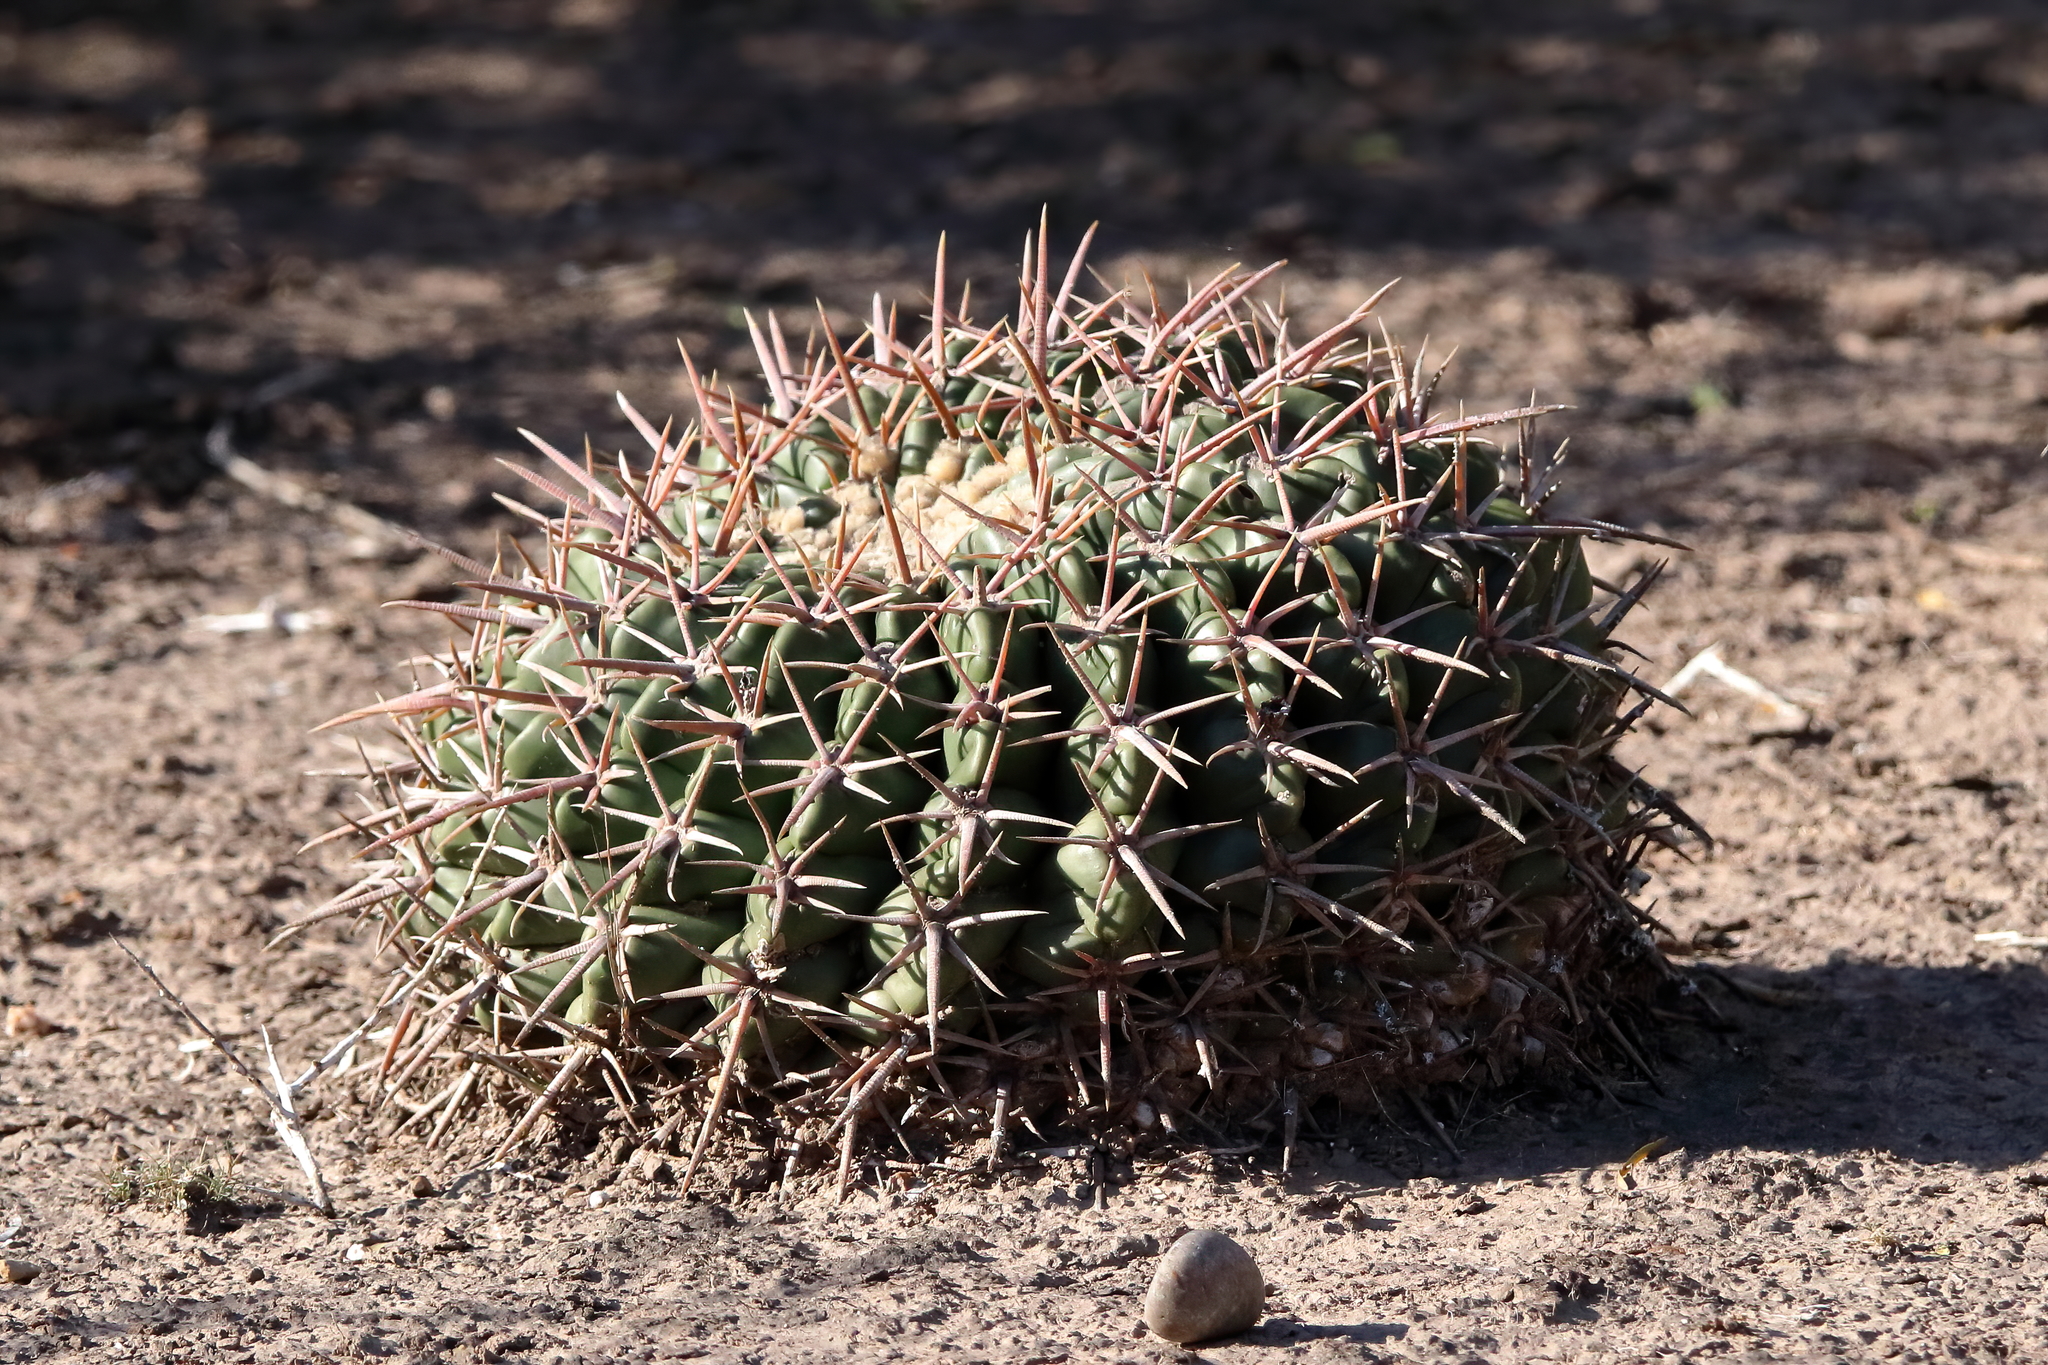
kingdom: Plantae
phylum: Tracheophyta
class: Magnoliopsida
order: Caryophyllales
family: Cactaceae
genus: Echinocactus
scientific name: Echinocactus texensis
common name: Devil's pincushion
